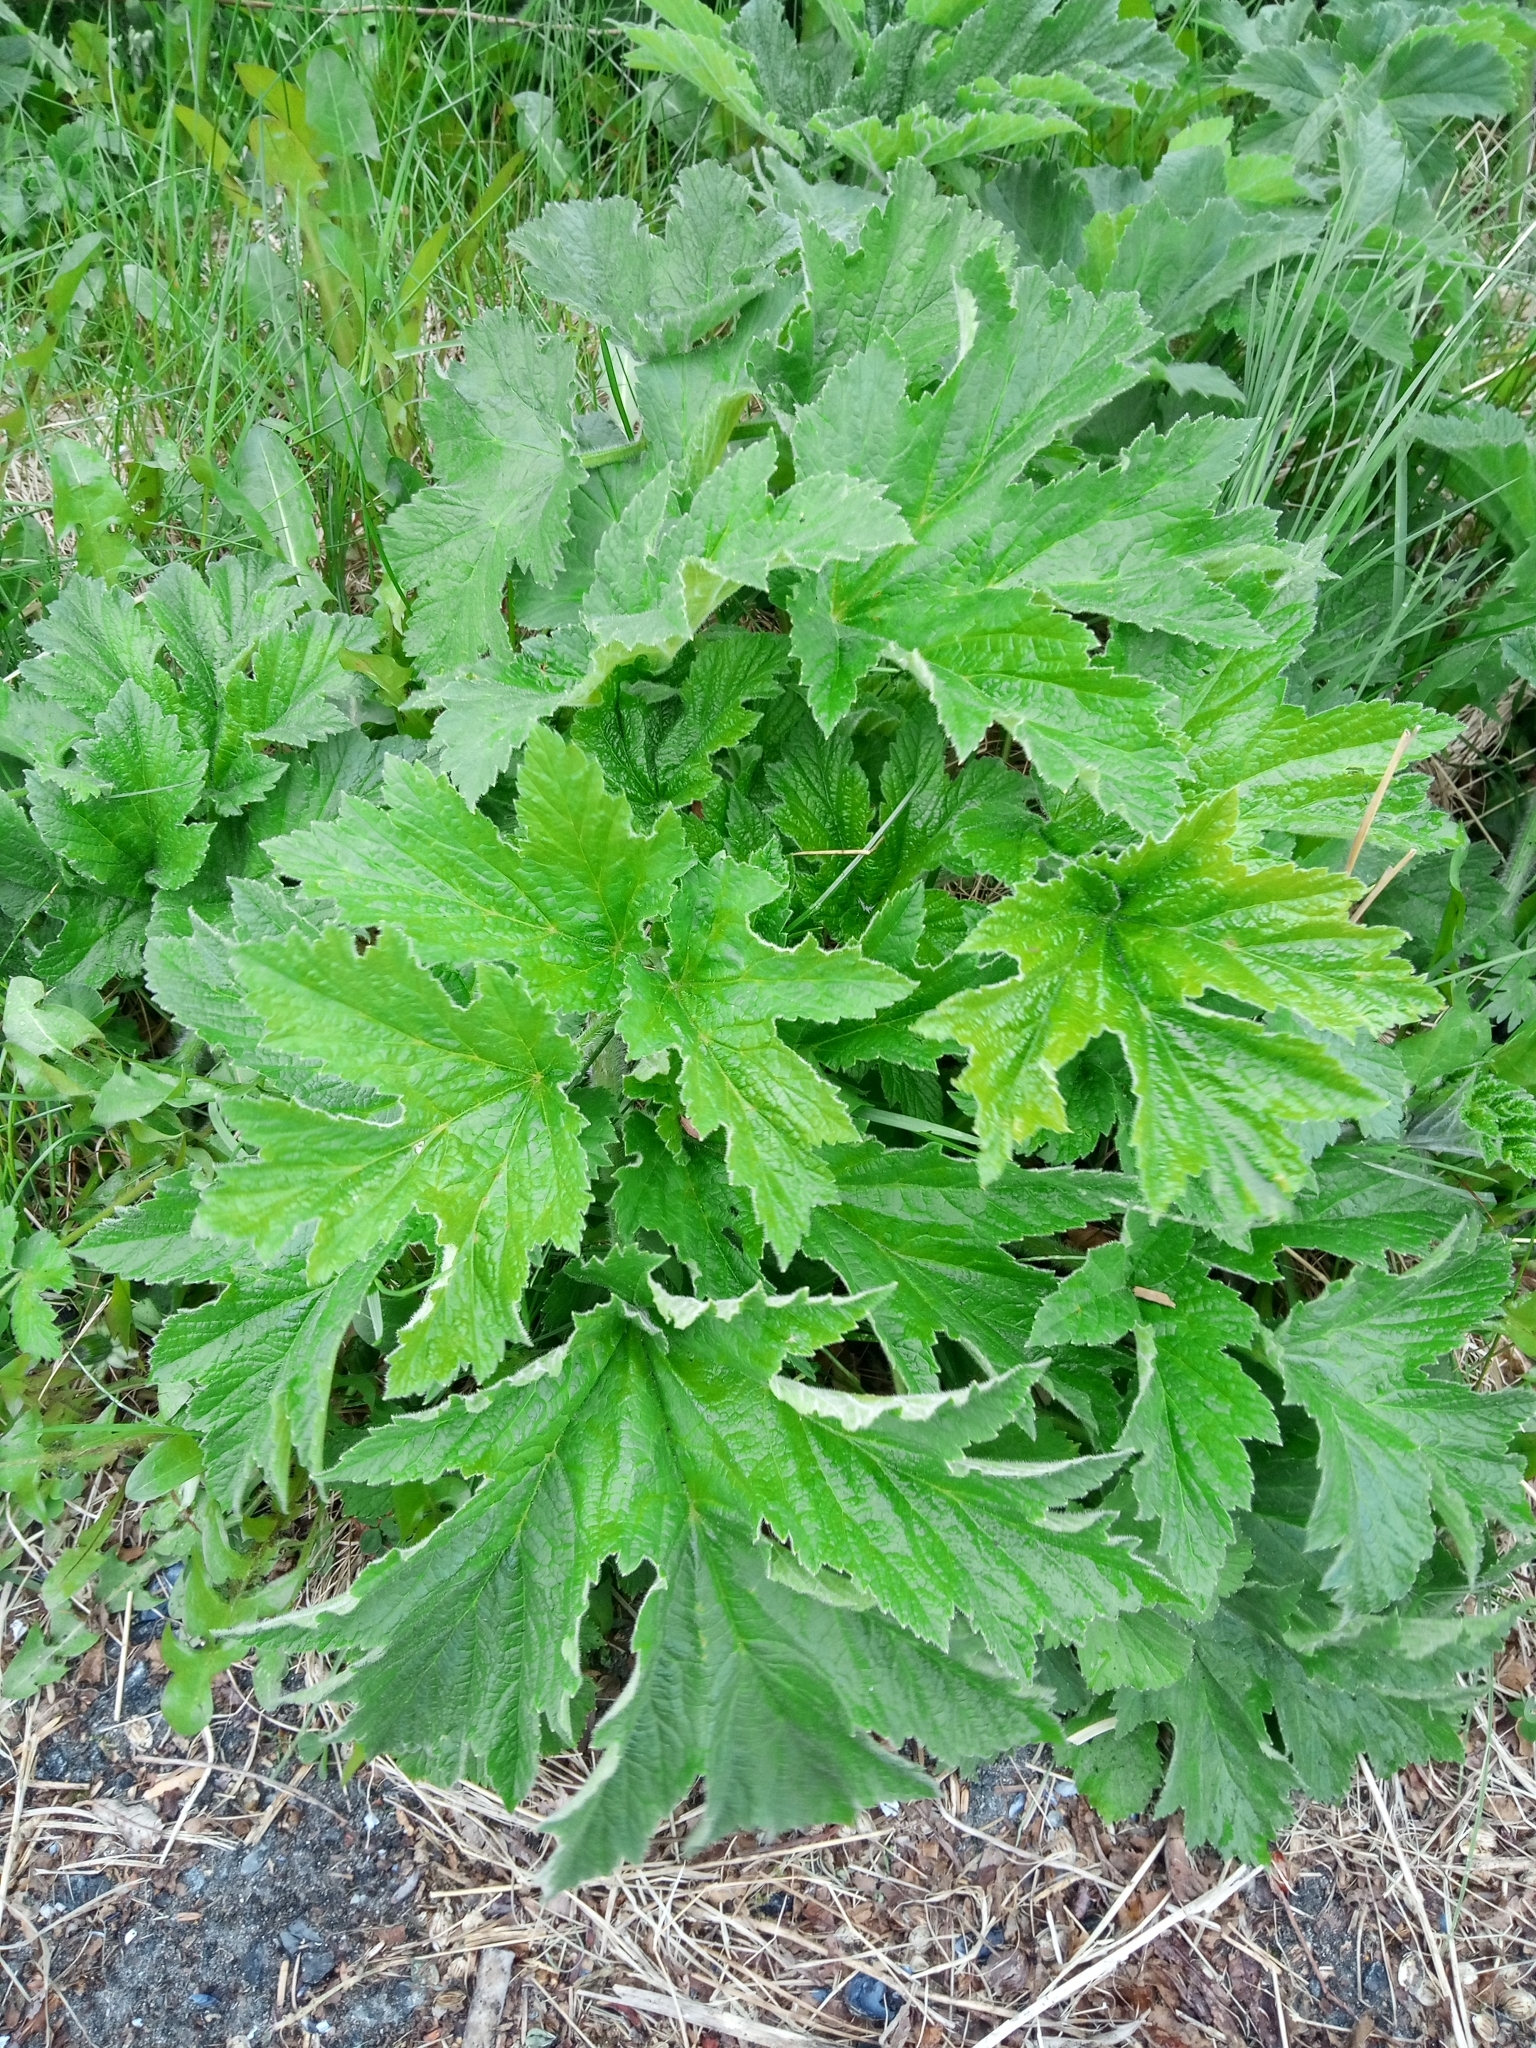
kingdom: Plantae
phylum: Tracheophyta
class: Magnoliopsida
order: Apiales
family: Apiaceae
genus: Heracleum
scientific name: Heracleum maximum
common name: American cow parsnip
